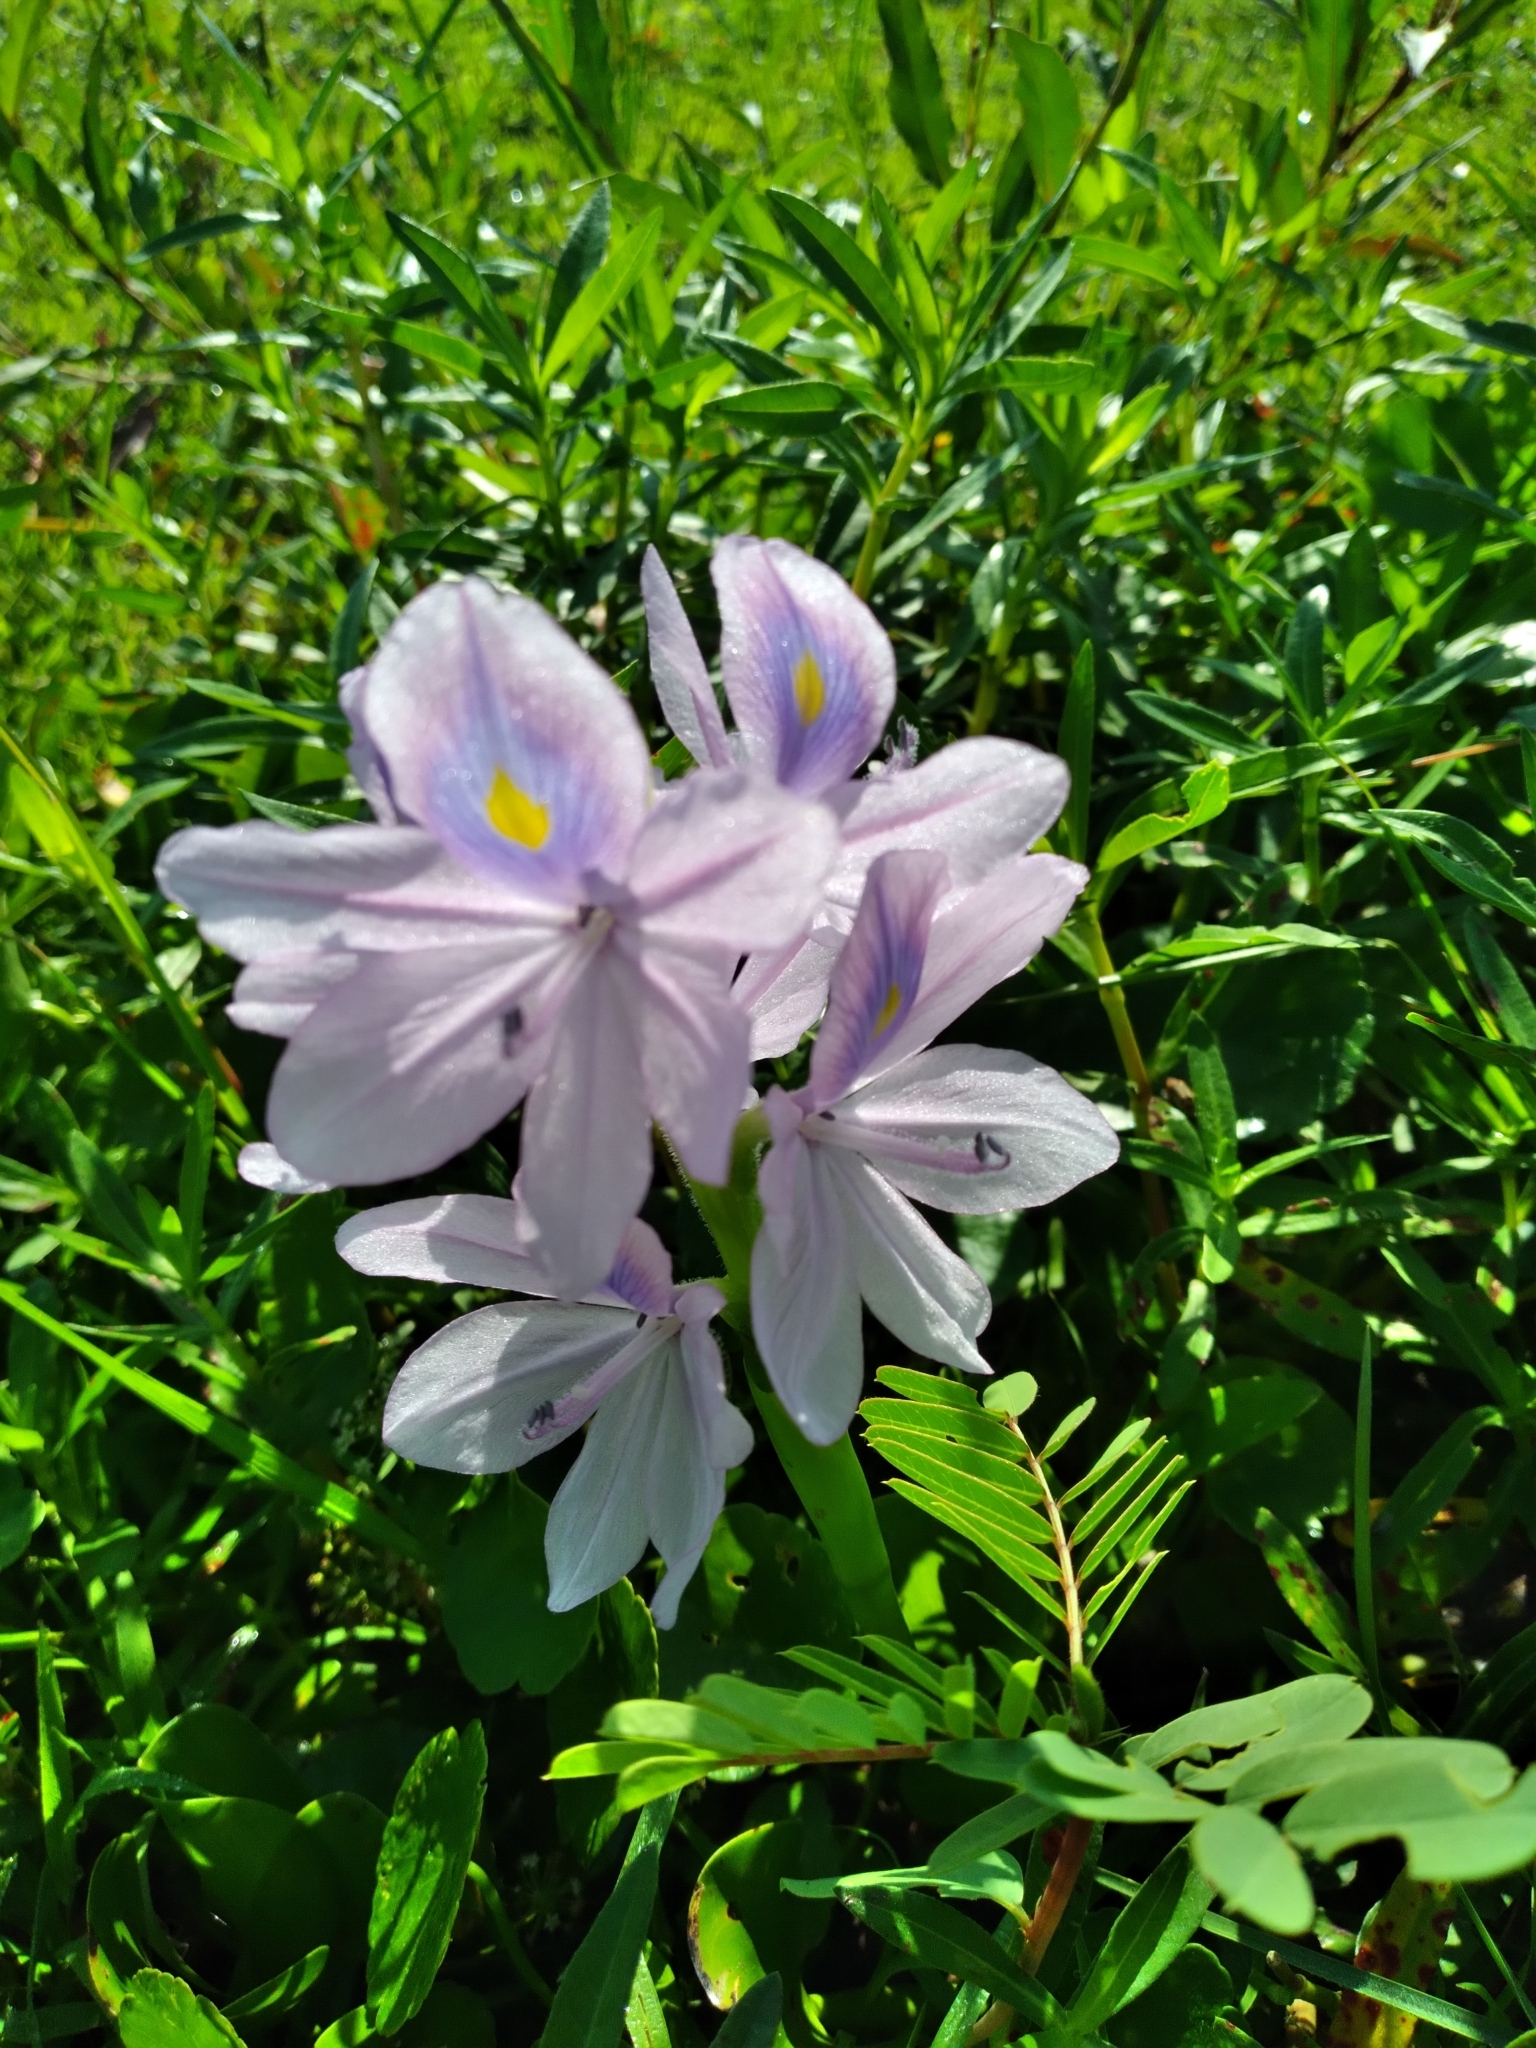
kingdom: Plantae
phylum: Tracheophyta
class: Liliopsida
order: Commelinales
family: Pontederiaceae
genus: Pontederia
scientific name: Pontederia crassipes
